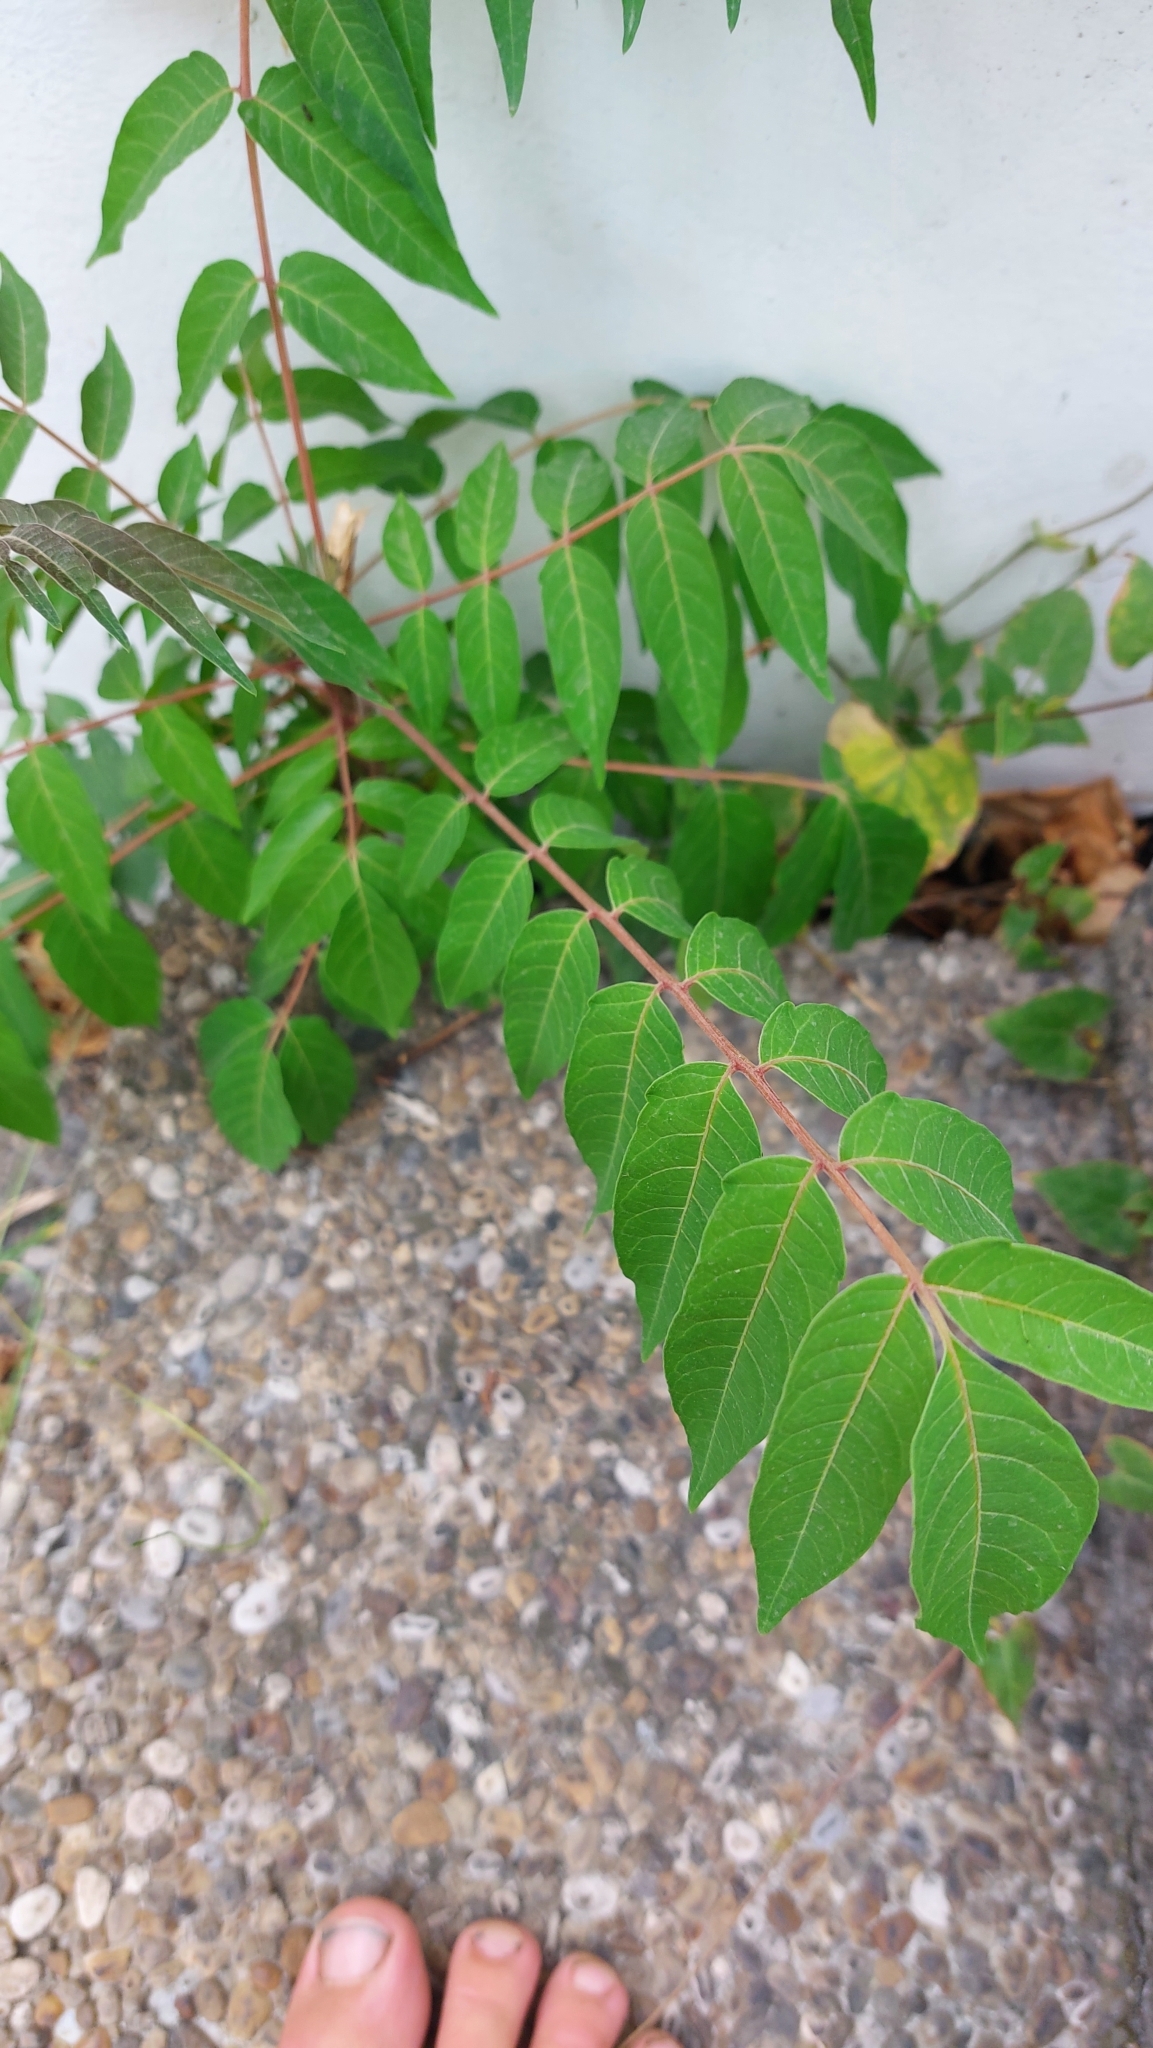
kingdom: Plantae
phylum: Tracheophyta
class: Magnoliopsida
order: Sapindales
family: Simaroubaceae
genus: Ailanthus
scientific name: Ailanthus altissima
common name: Tree-of-heaven
